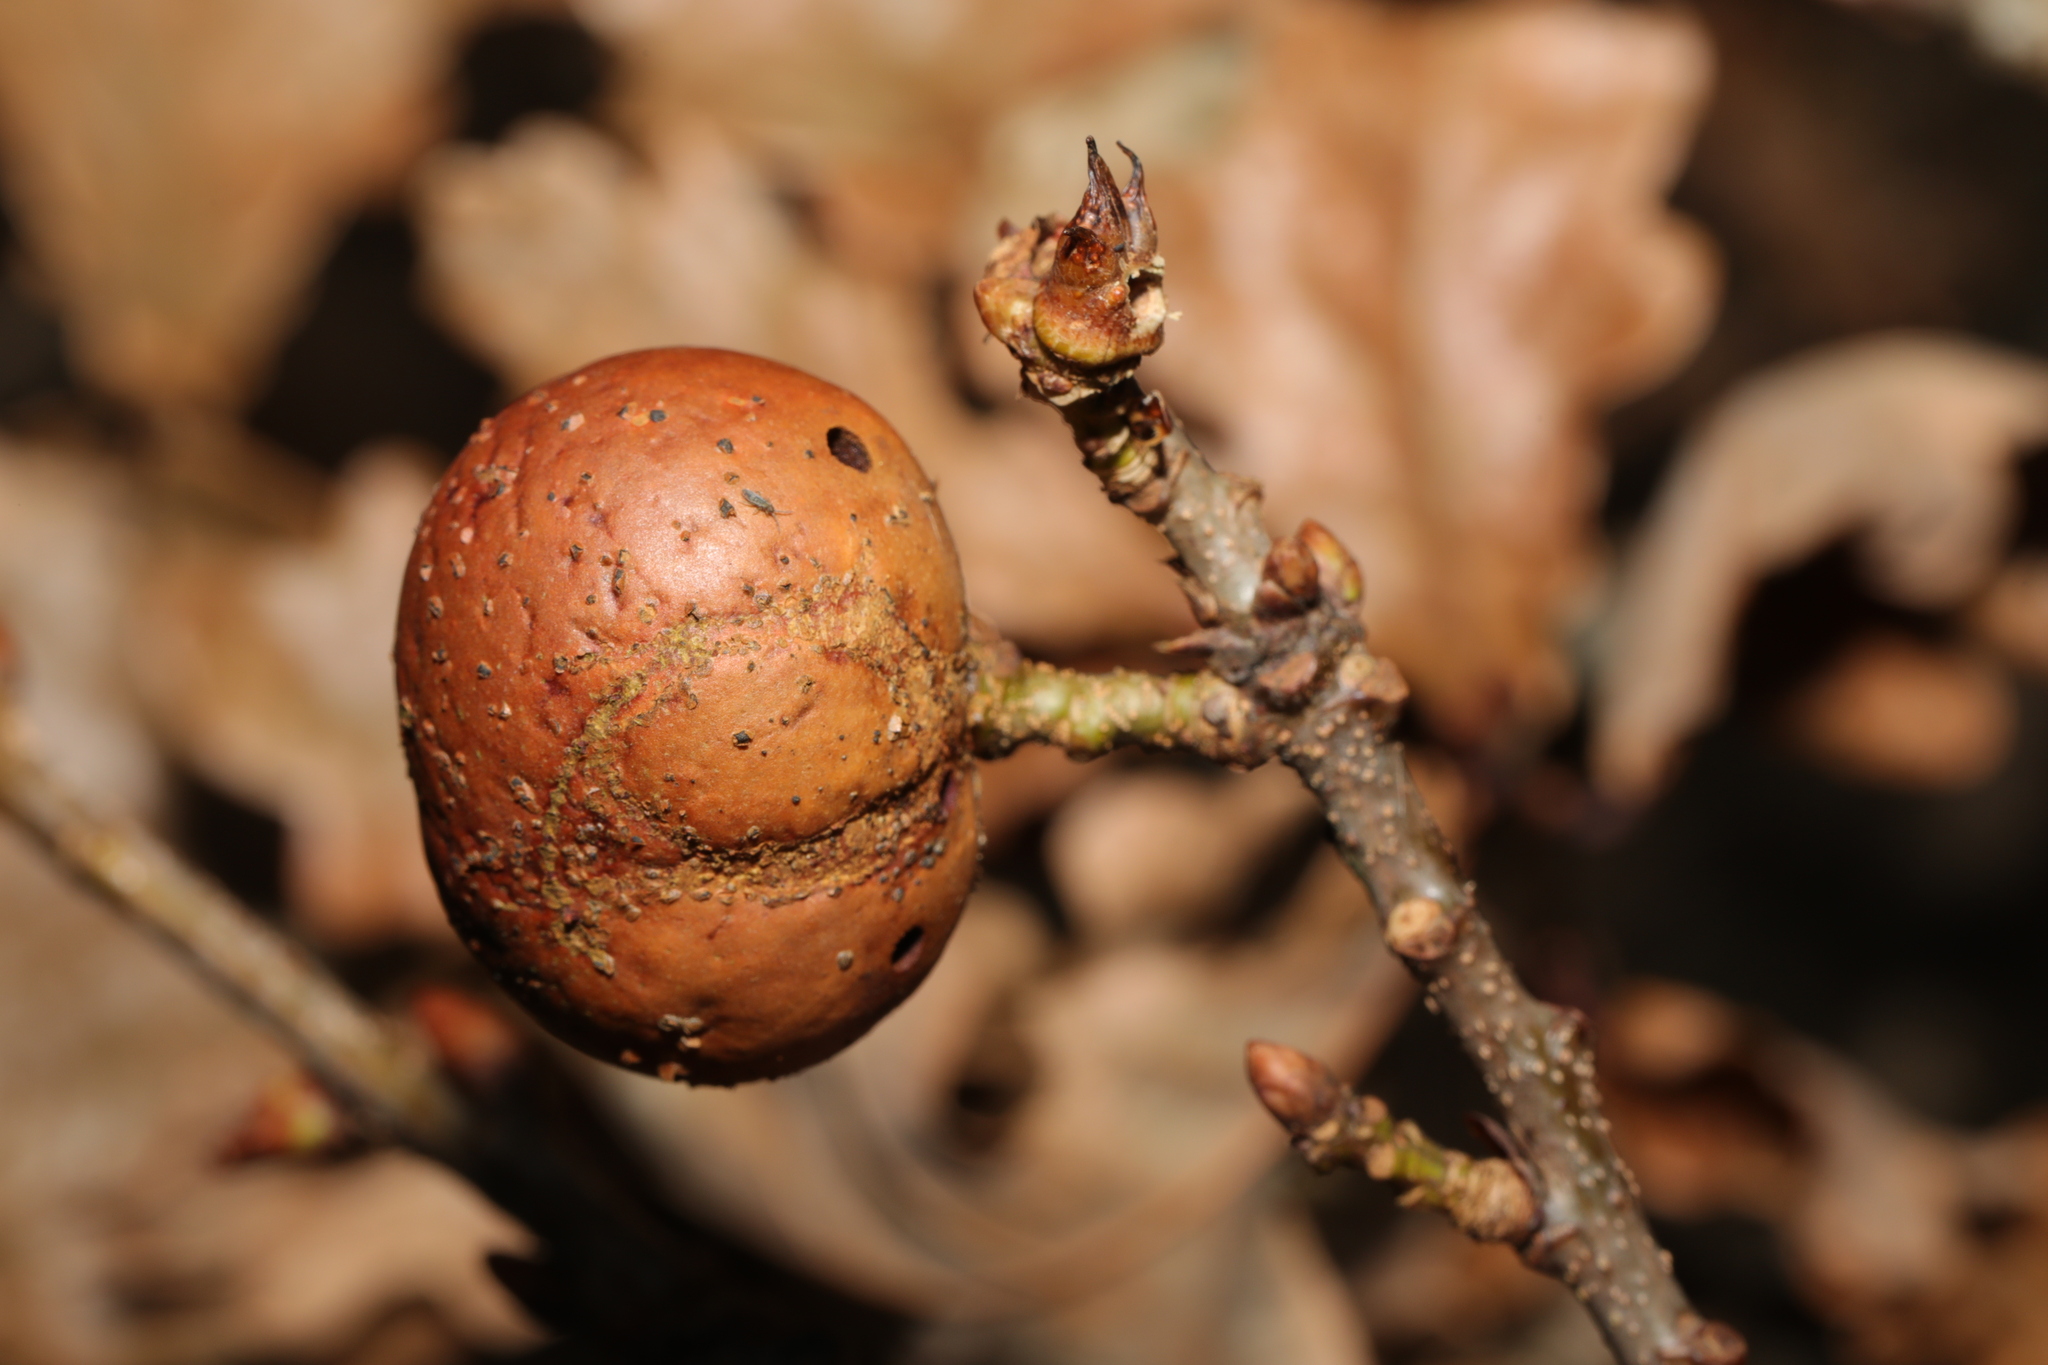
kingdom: Animalia
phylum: Arthropoda
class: Insecta
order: Hymenoptera
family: Cynipidae
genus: Andricus
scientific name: Andricus kollari
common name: Marble gall
